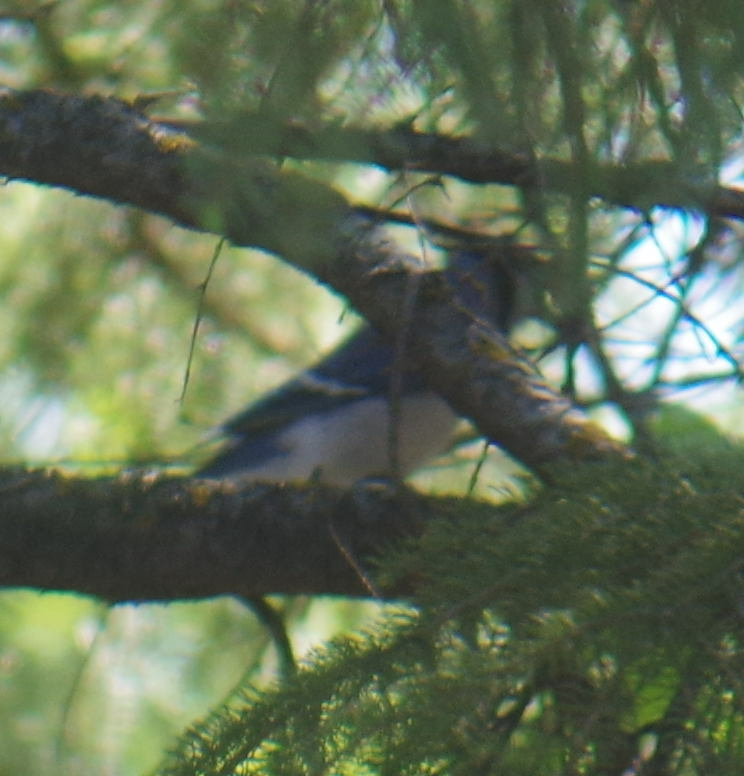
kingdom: Animalia
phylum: Chordata
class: Aves
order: Passeriformes
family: Corvidae
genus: Cyanocitta
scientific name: Cyanocitta cristata
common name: Blue jay
